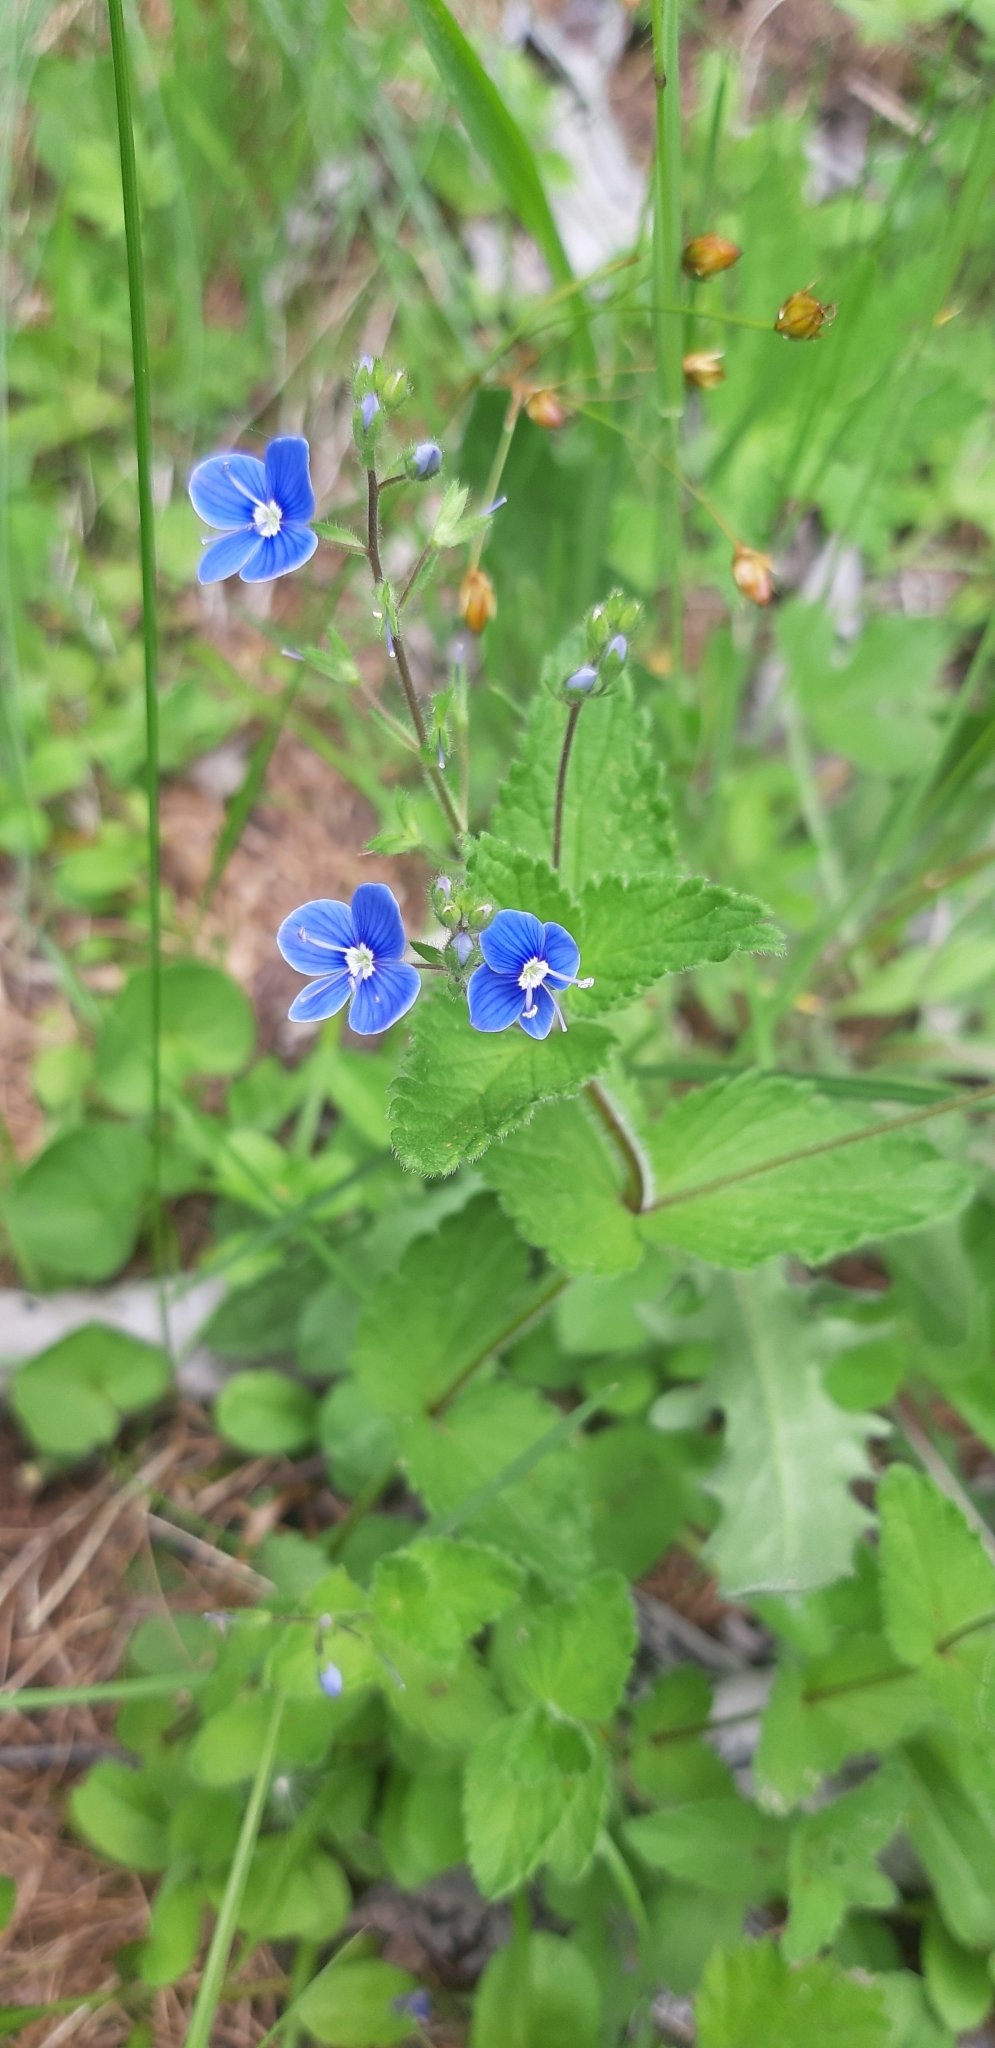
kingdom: Plantae
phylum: Tracheophyta
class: Magnoliopsida
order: Lamiales
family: Plantaginaceae
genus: Veronica
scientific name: Veronica chamaedrys
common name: Germander speedwell
